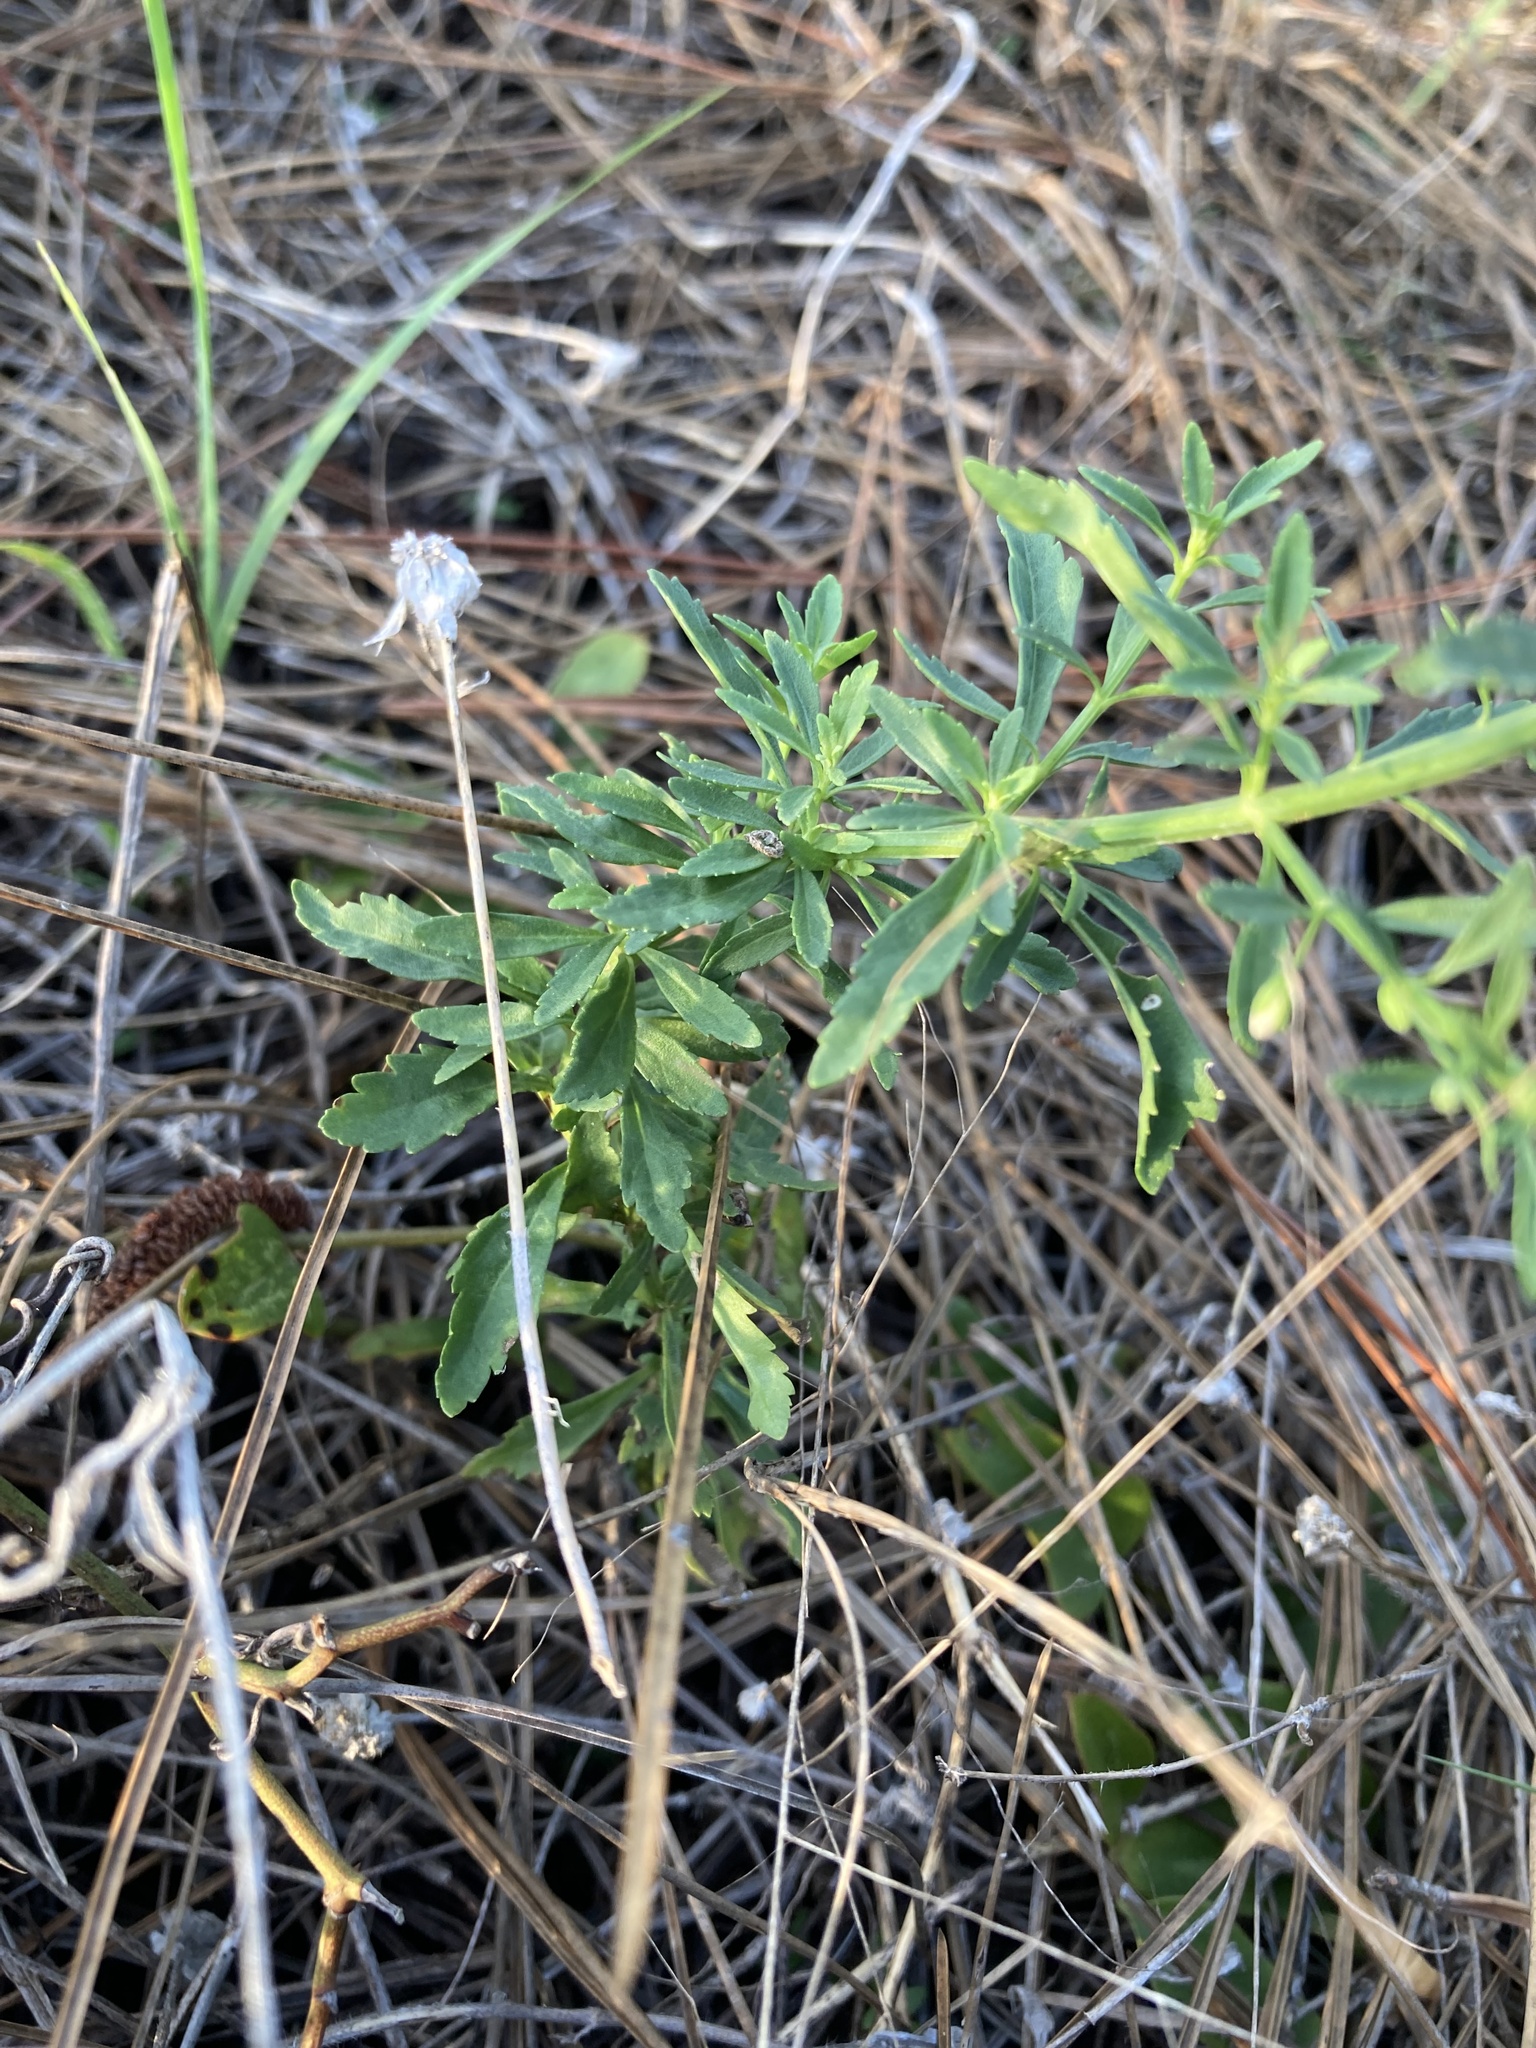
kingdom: Plantae
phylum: Tracheophyta
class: Magnoliopsida
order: Lamiales
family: Plantaginaceae
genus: Scoparia
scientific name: Scoparia dulcis
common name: Scoparia-weed
